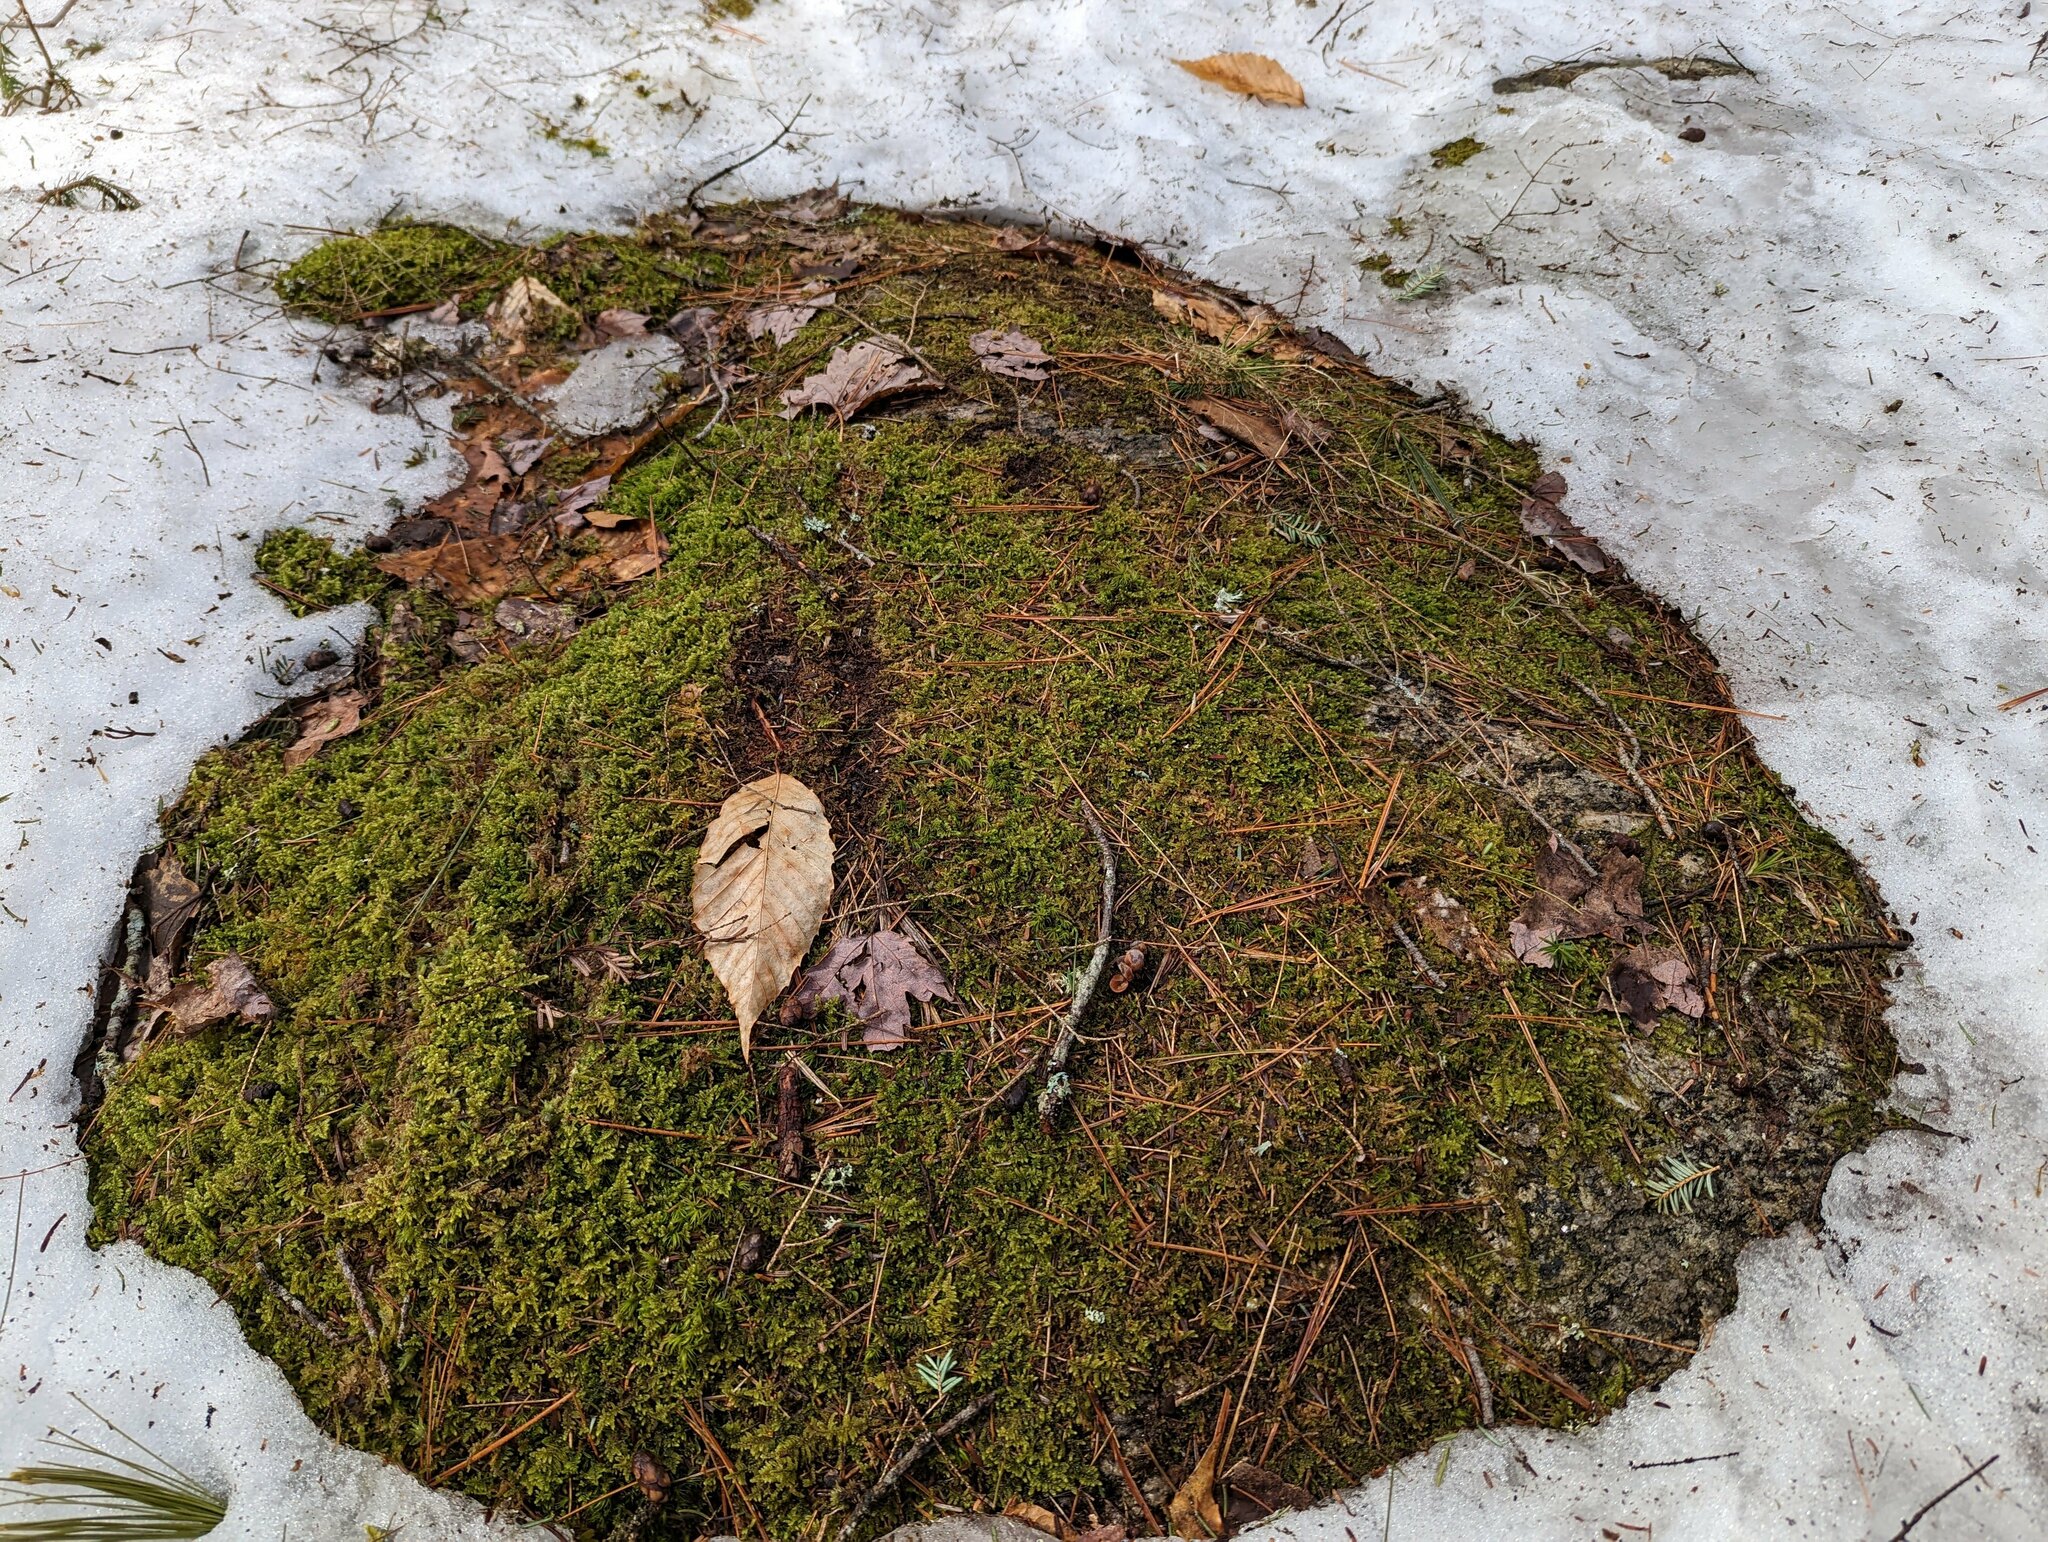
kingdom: Plantae
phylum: Bryophyta
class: Bryopsida
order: Hypnales
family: Callicladiaceae
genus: Callicladium
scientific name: Callicladium imponens
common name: Brocade moss
